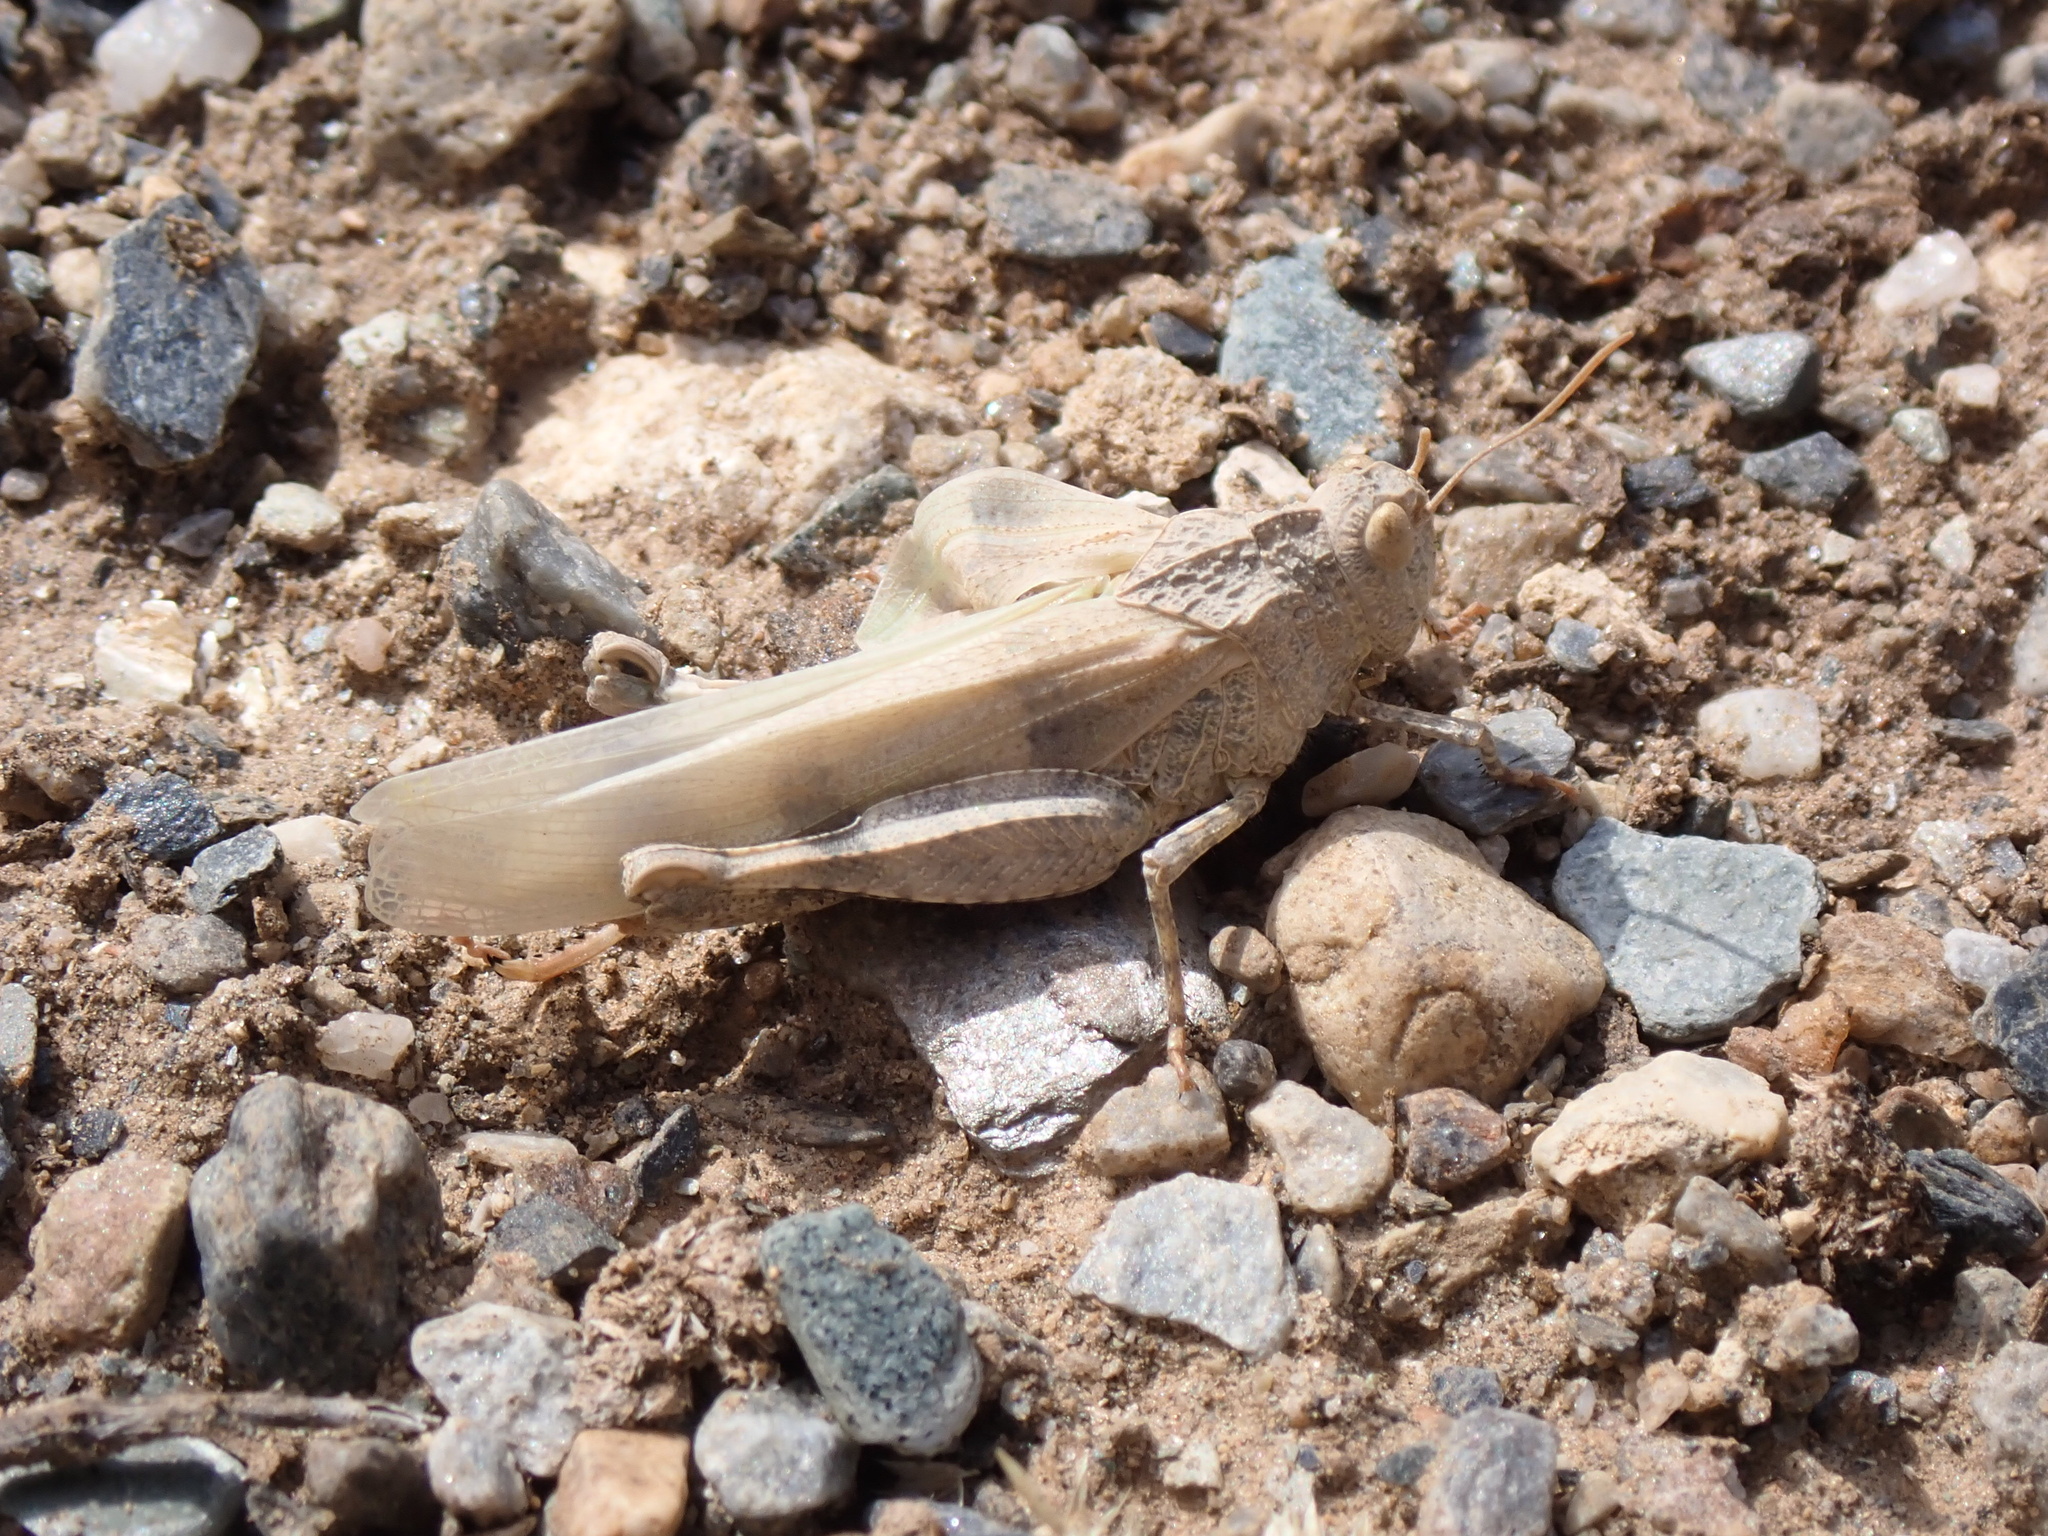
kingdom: Animalia
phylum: Arthropoda
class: Insecta
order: Orthoptera
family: Acrididae
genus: Oedipoda
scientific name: Oedipoda
